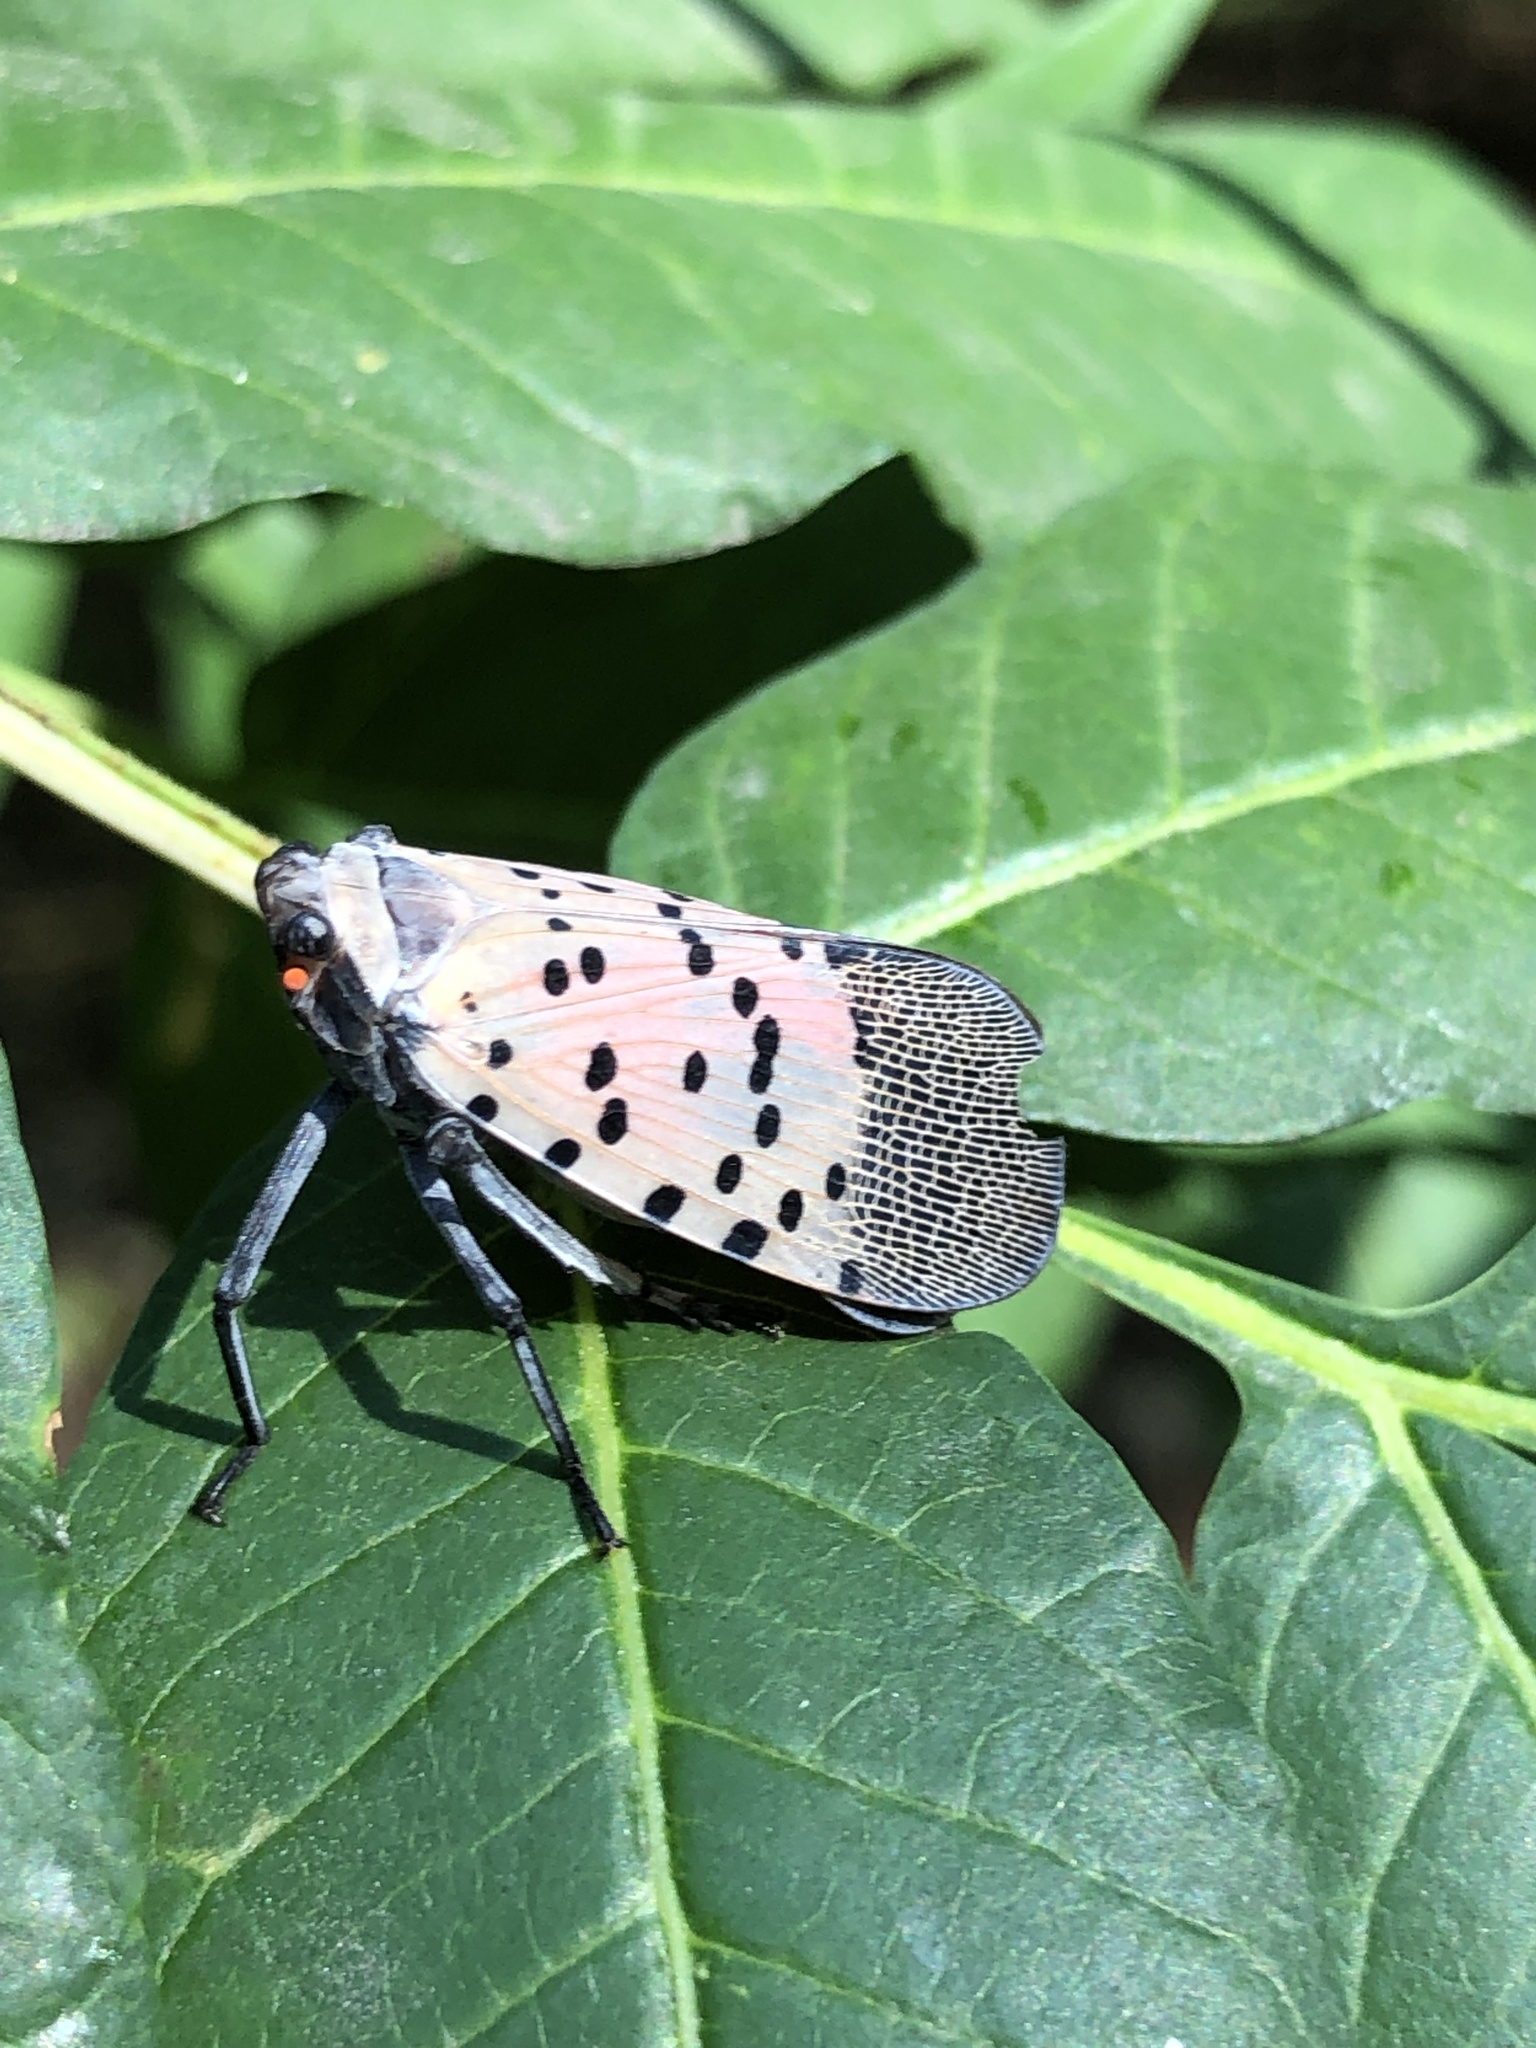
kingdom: Animalia
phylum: Arthropoda
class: Insecta
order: Hemiptera
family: Fulgoridae
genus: Lycorma
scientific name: Lycorma delicatula
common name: Spotted lanternfly
